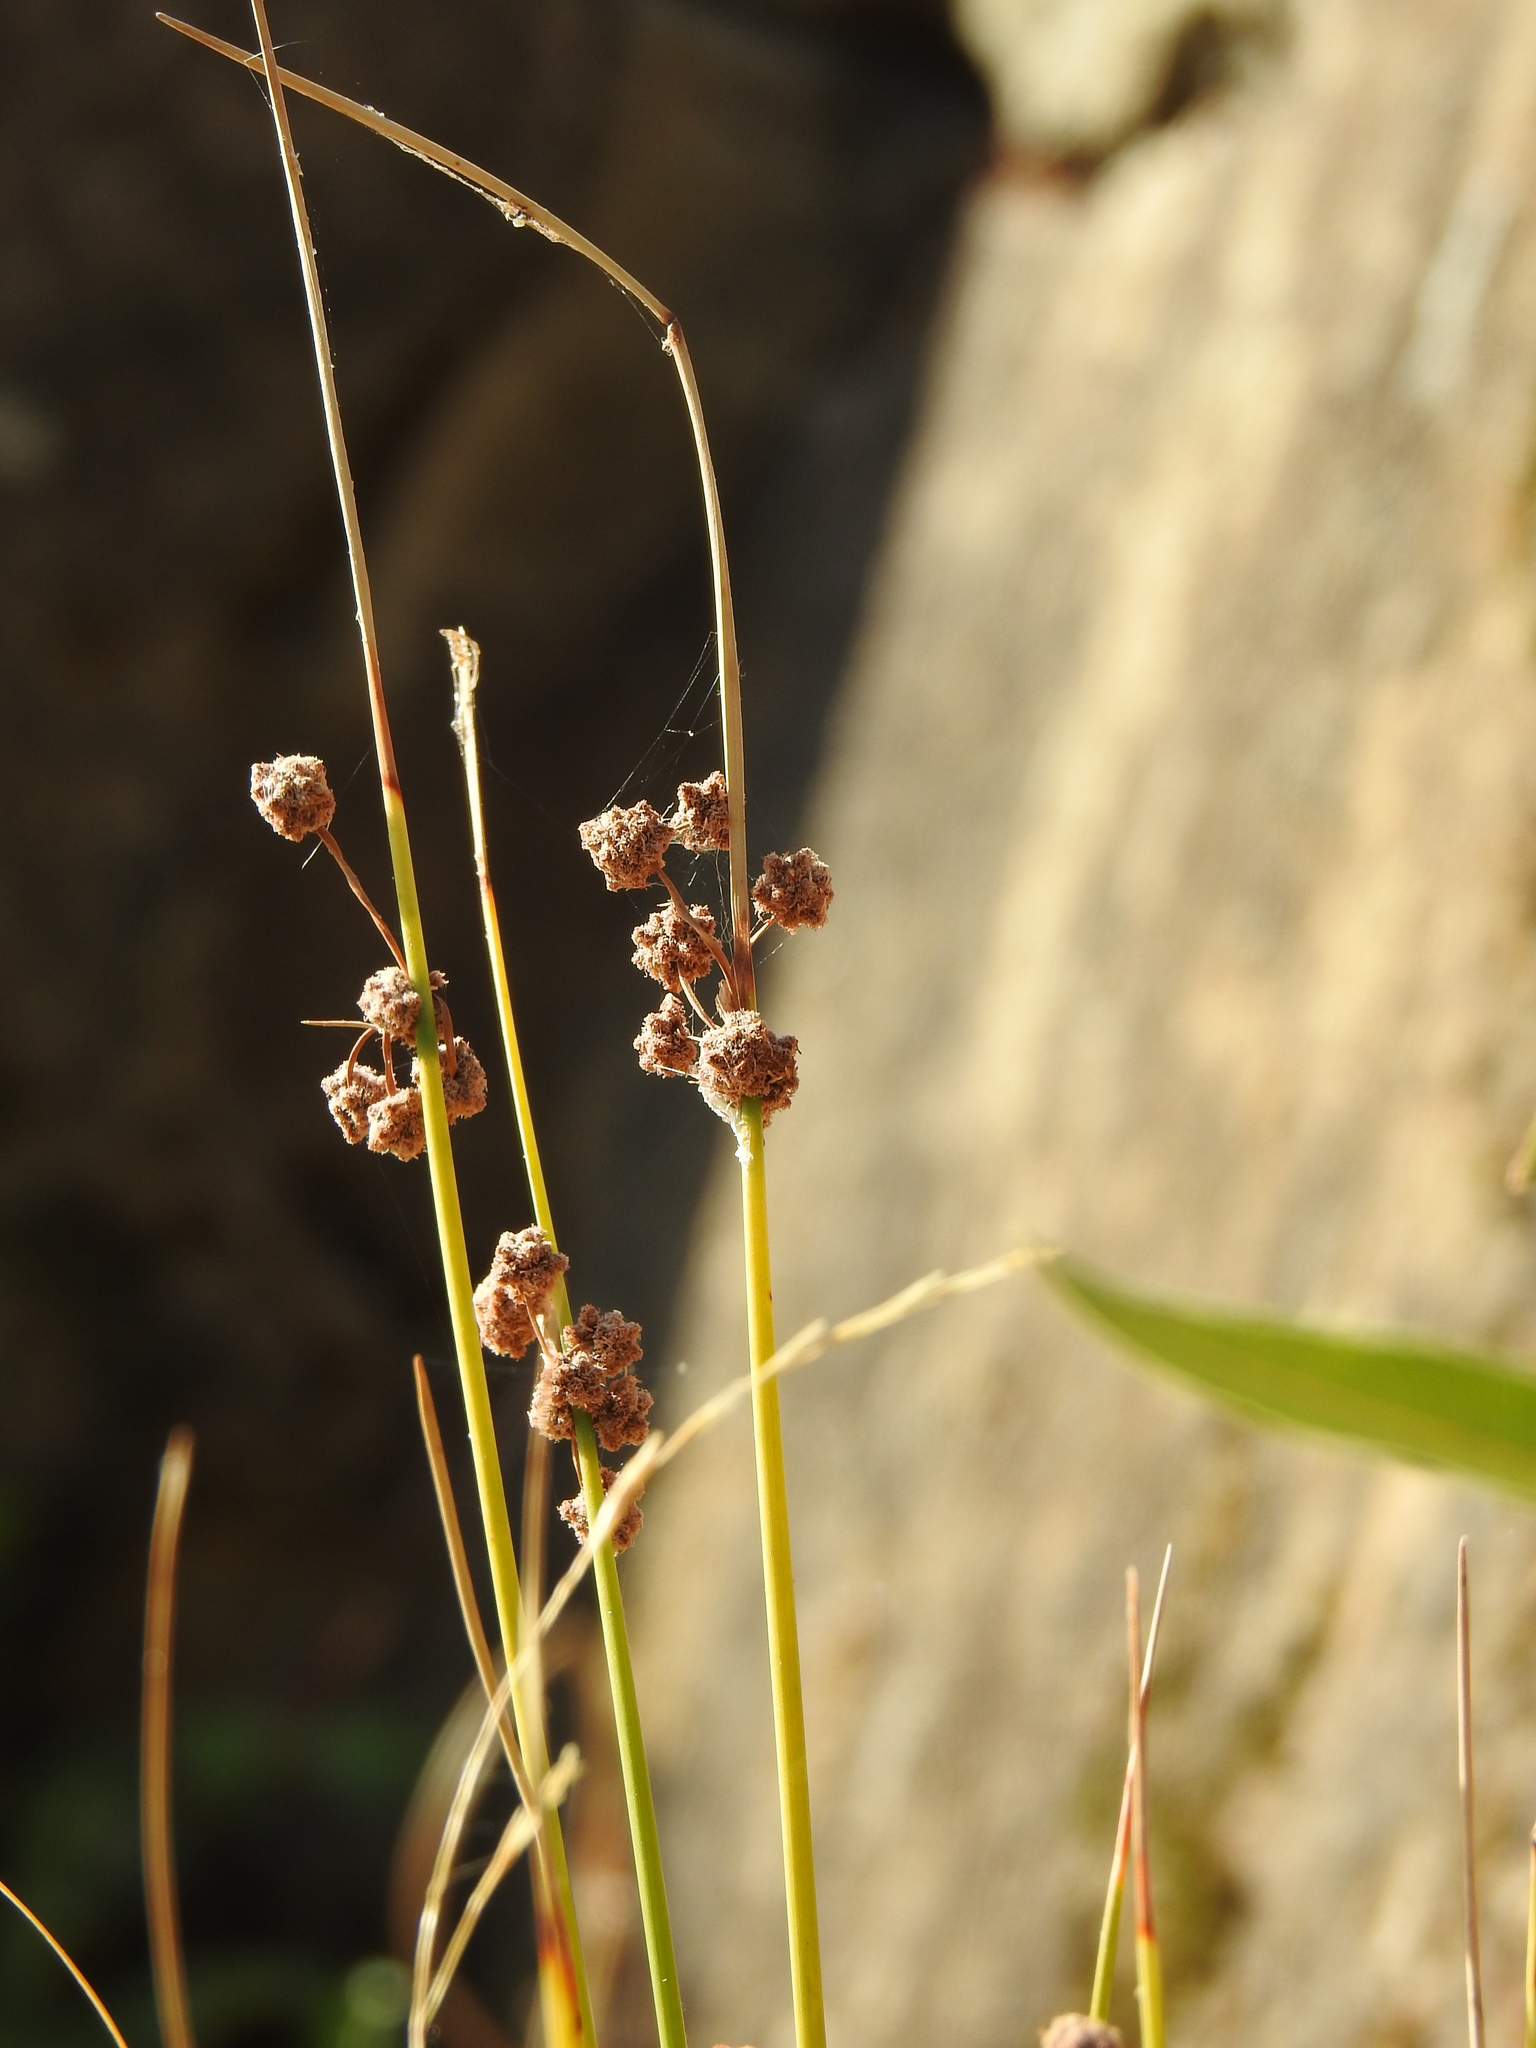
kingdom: Plantae
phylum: Tracheophyta
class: Liliopsida
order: Poales
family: Cyperaceae
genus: Scirpoides
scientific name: Scirpoides holoschoenus
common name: Round-headed club-rush
